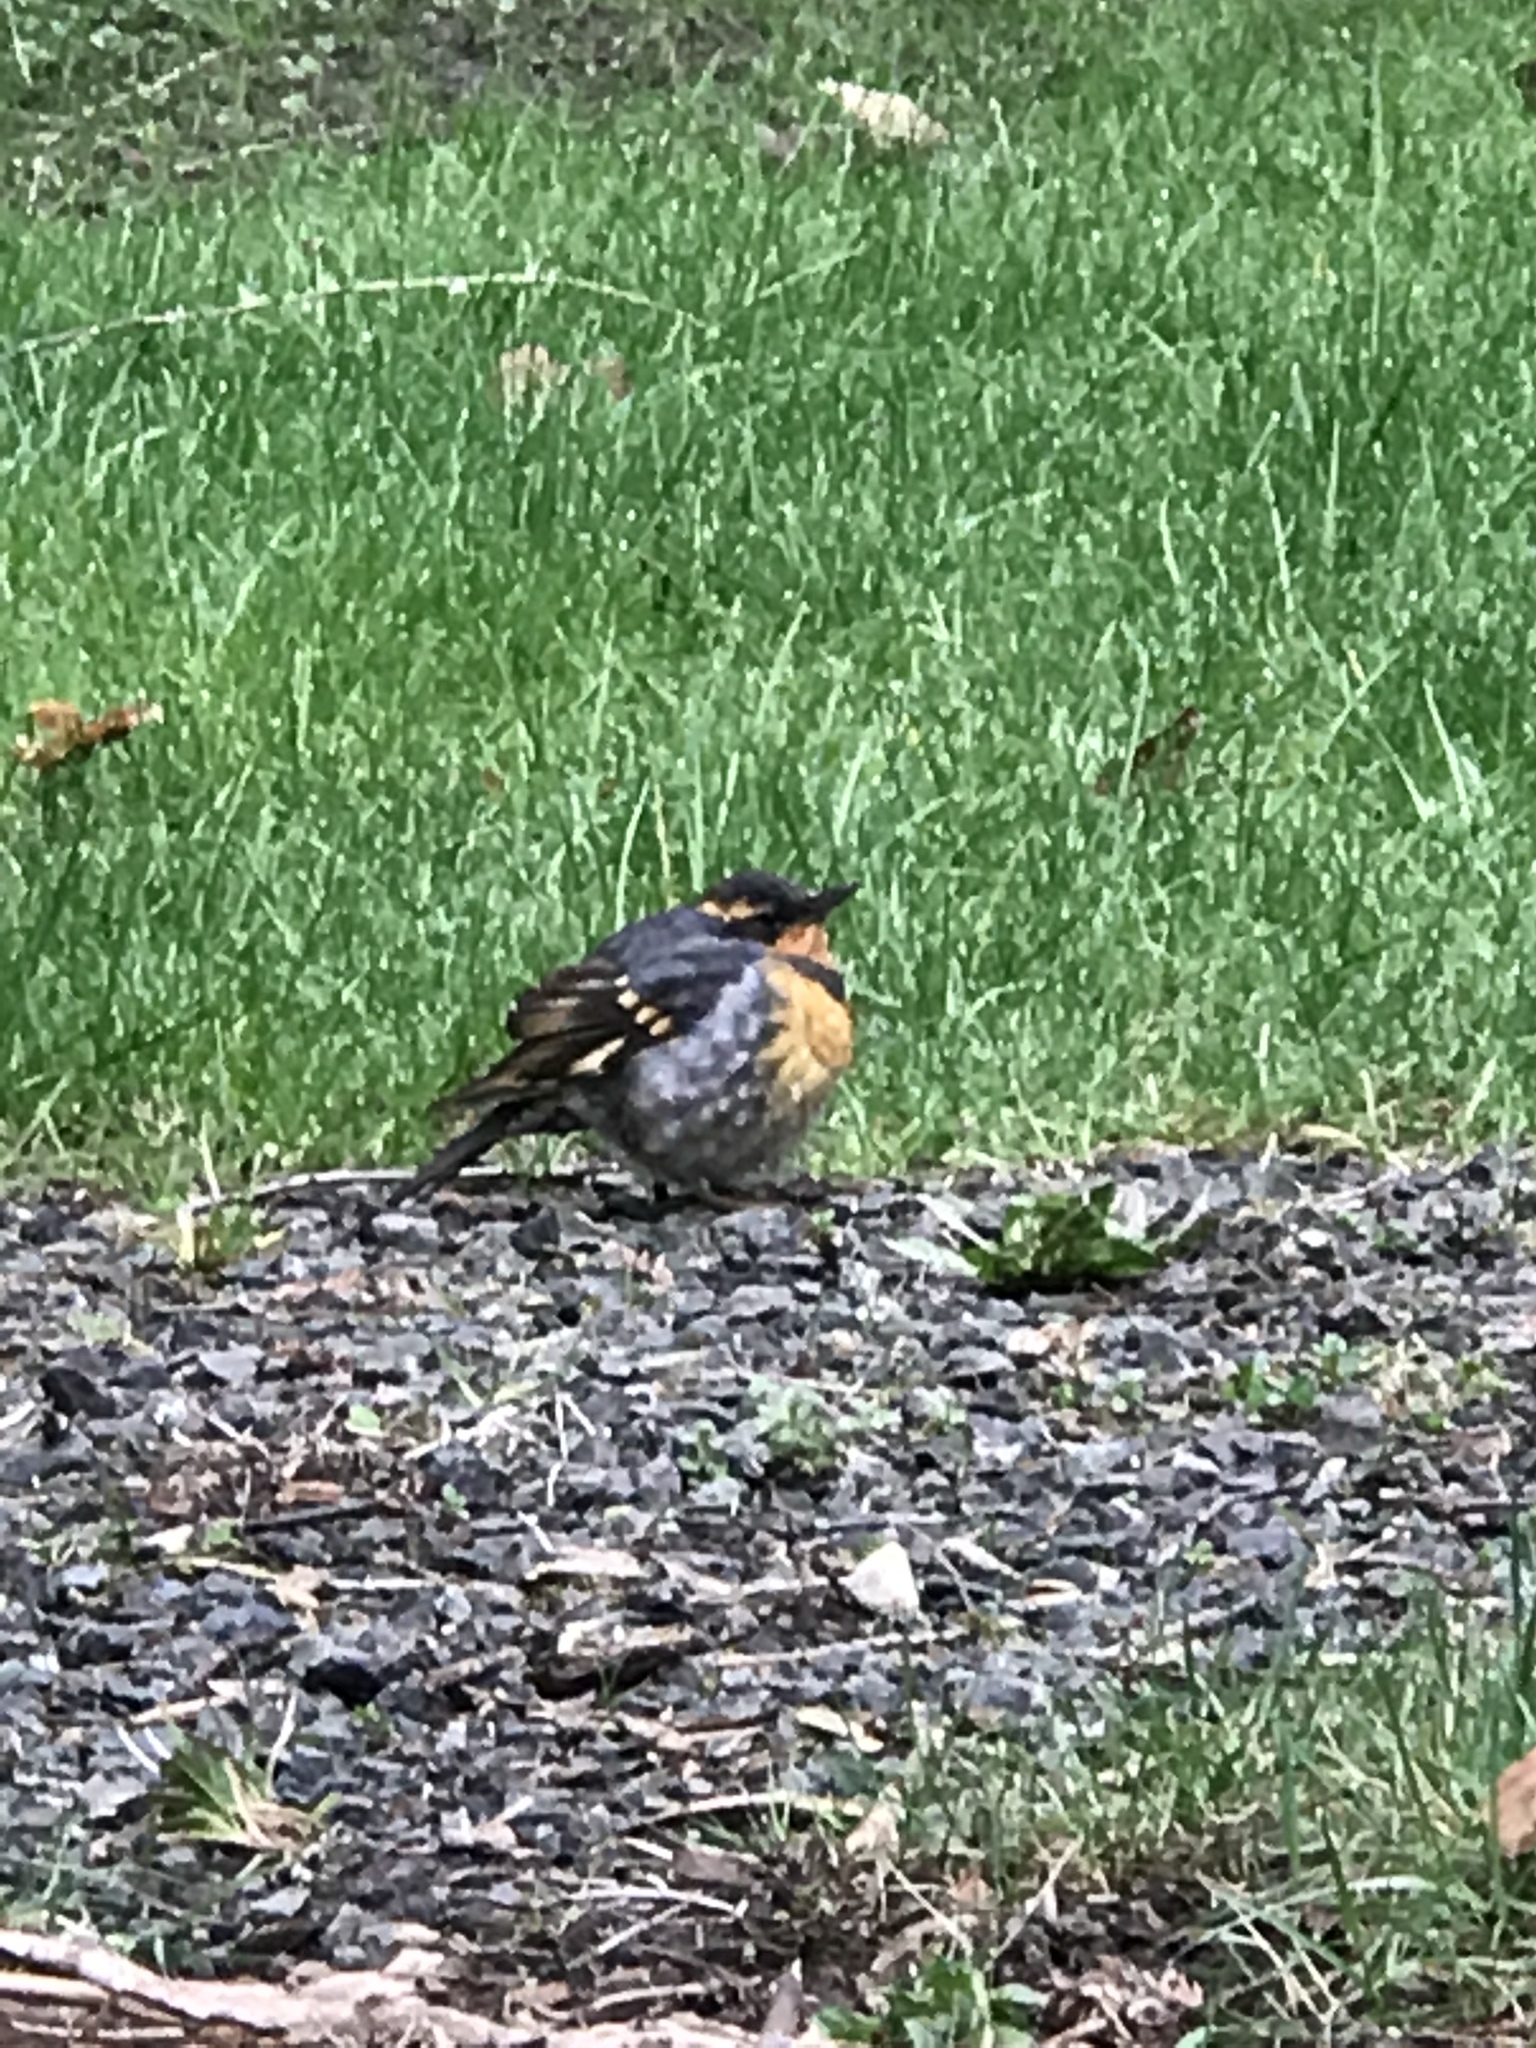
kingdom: Animalia
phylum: Chordata
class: Aves
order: Passeriformes
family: Turdidae
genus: Ixoreus
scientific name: Ixoreus naevius
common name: Varied thrush
